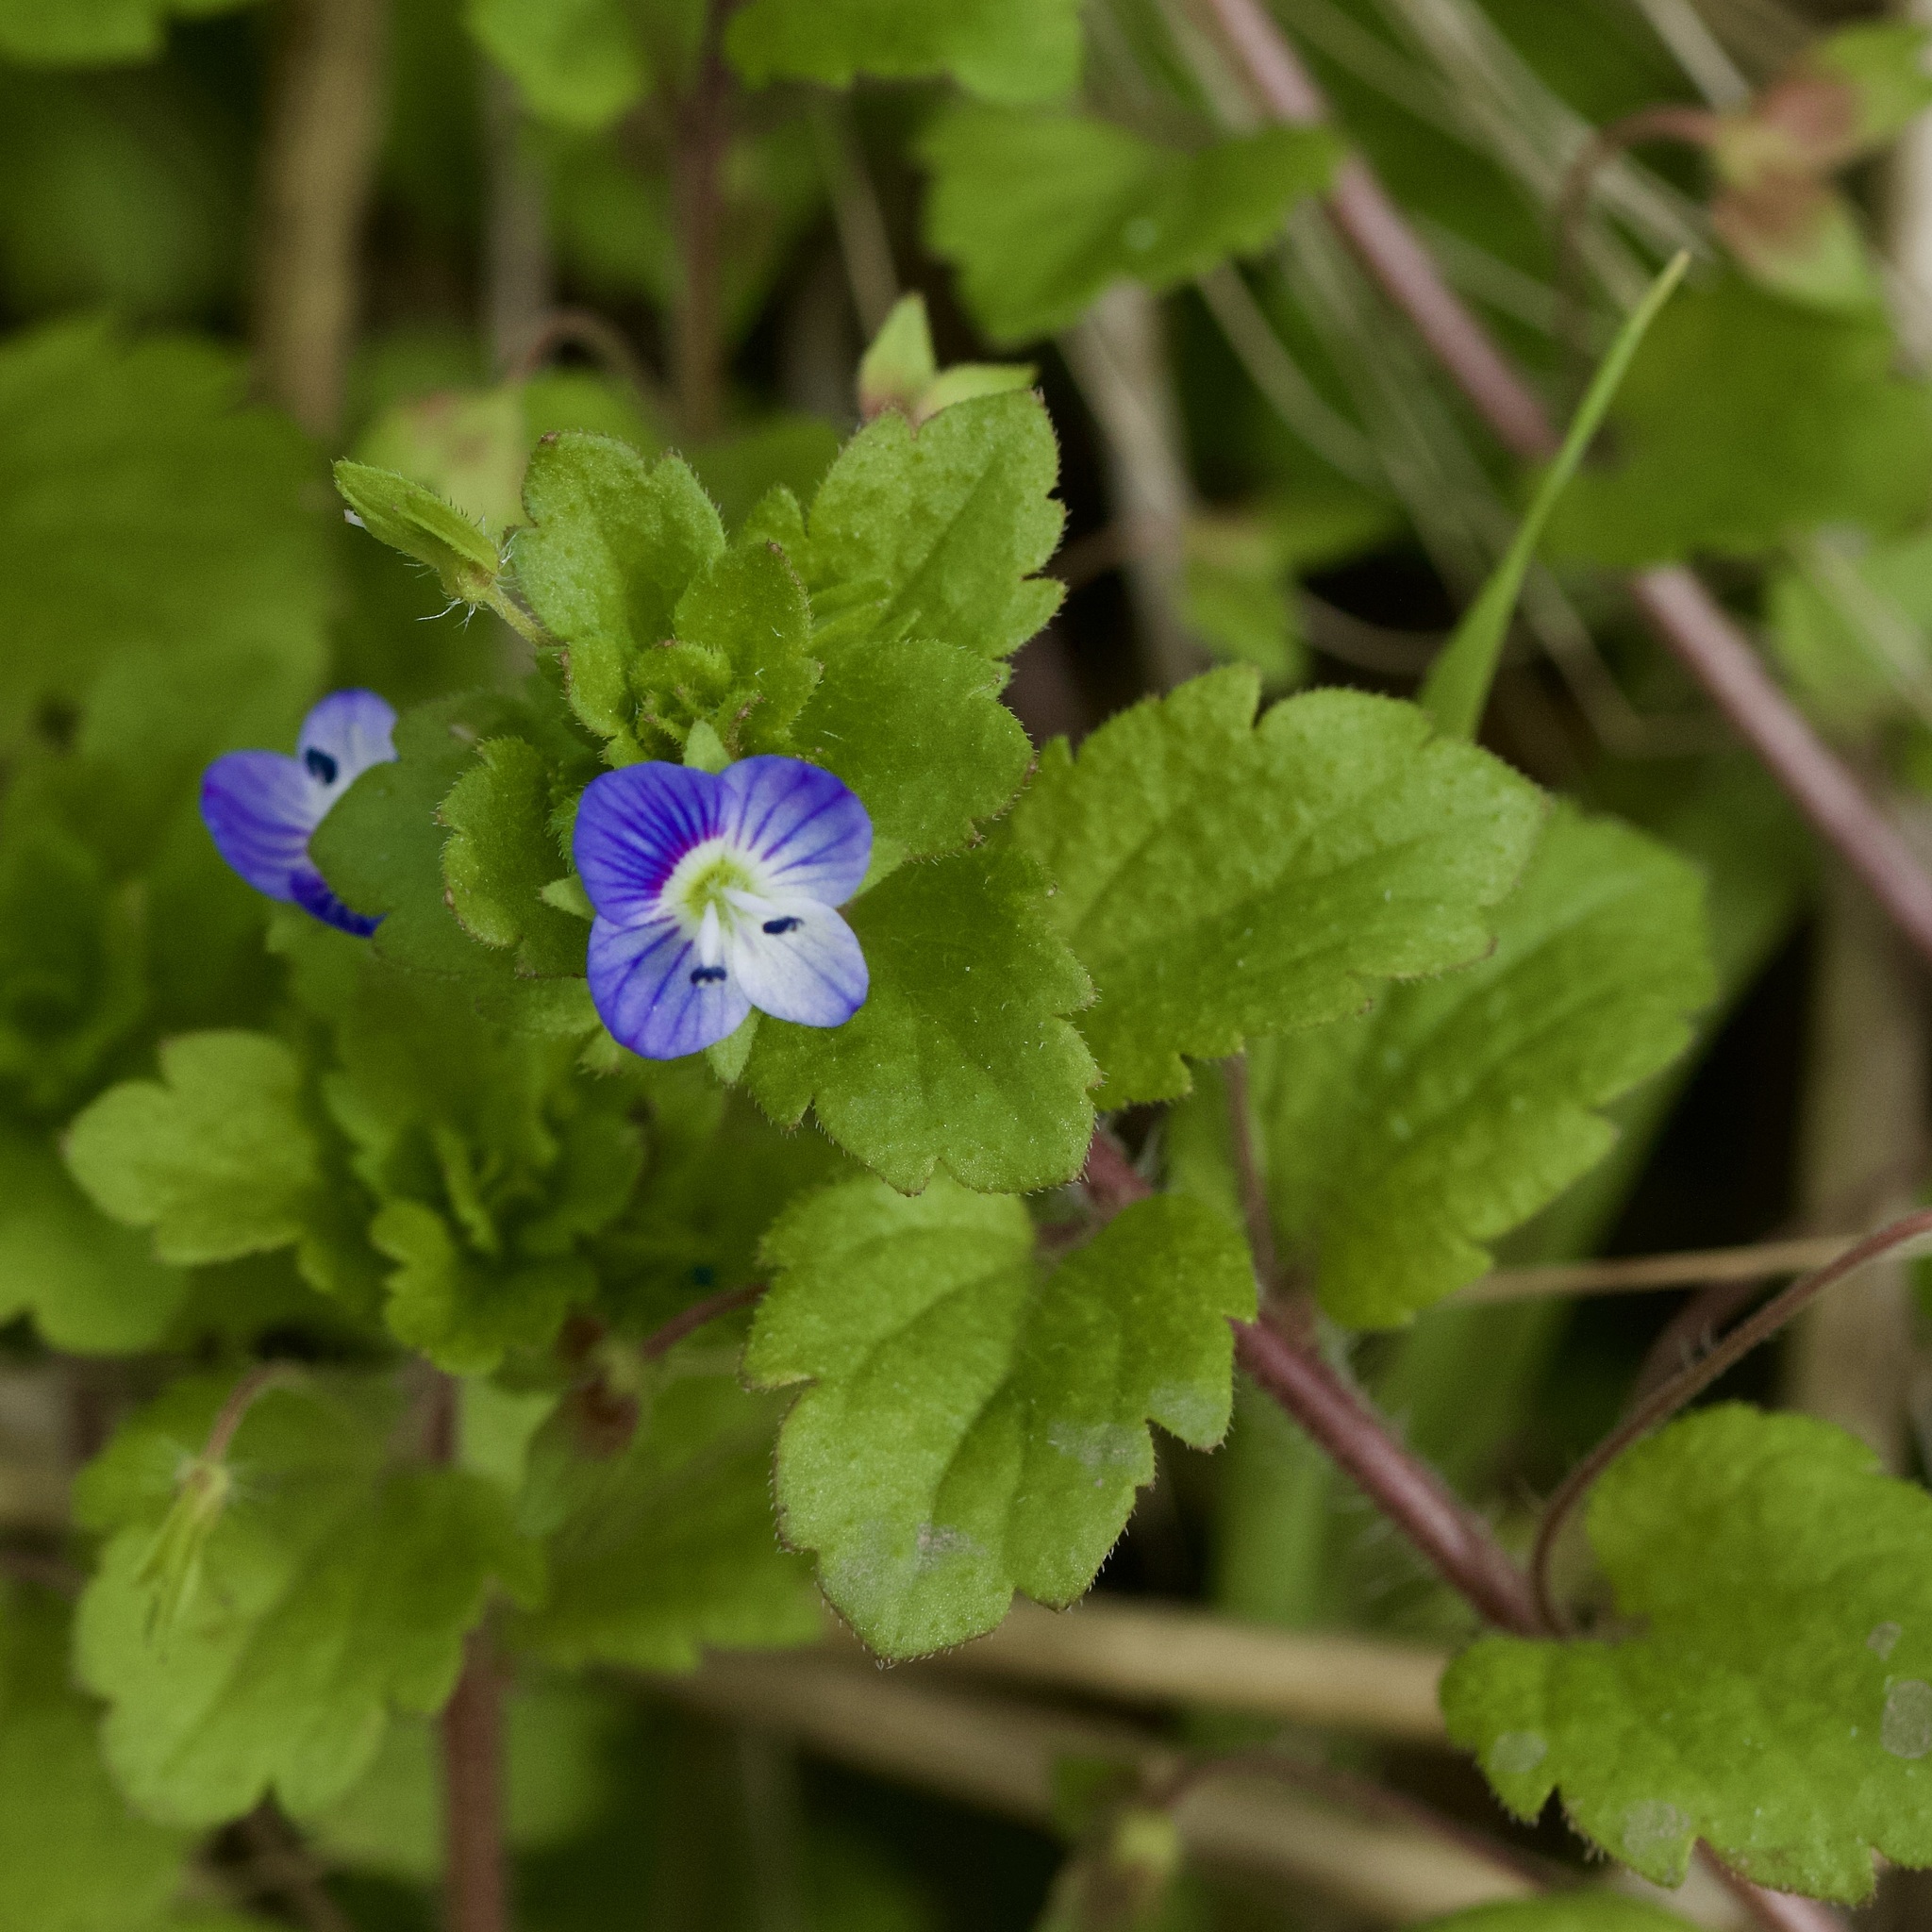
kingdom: Plantae
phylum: Tracheophyta
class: Magnoliopsida
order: Lamiales
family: Plantaginaceae
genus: Veronica
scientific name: Veronica persica
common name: Common field-speedwell
